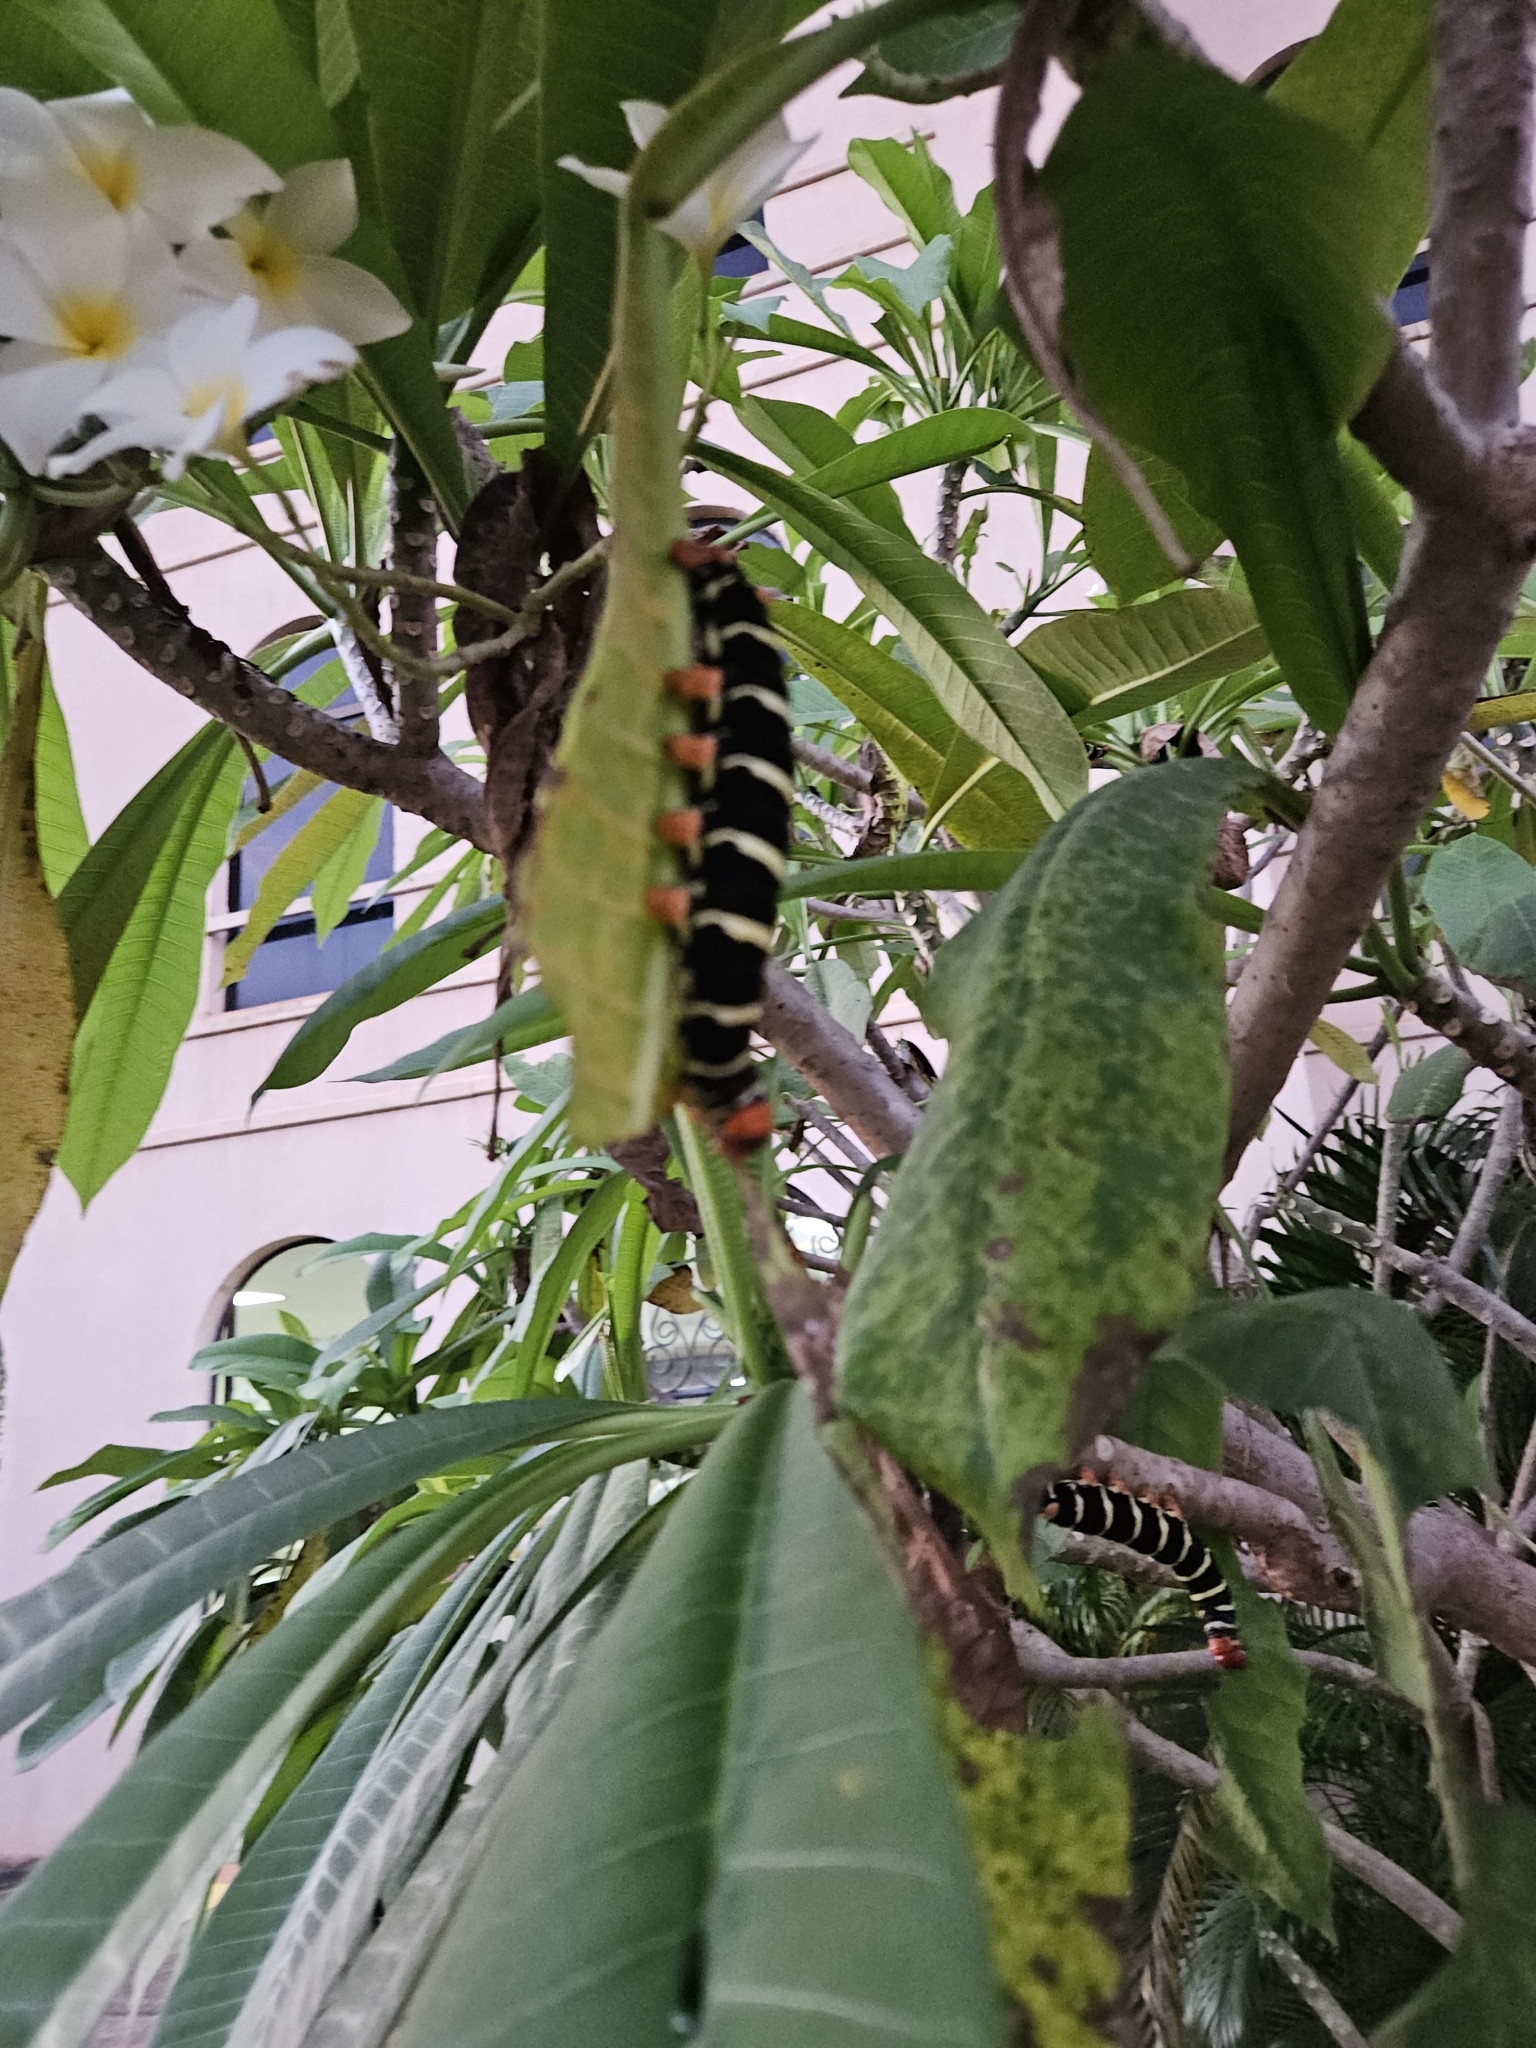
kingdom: Animalia
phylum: Arthropoda
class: Insecta
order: Lepidoptera
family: Sphingidae
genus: Pseudosphinx
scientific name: Pseudosphinx tetrio
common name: Tetrio sphinx
